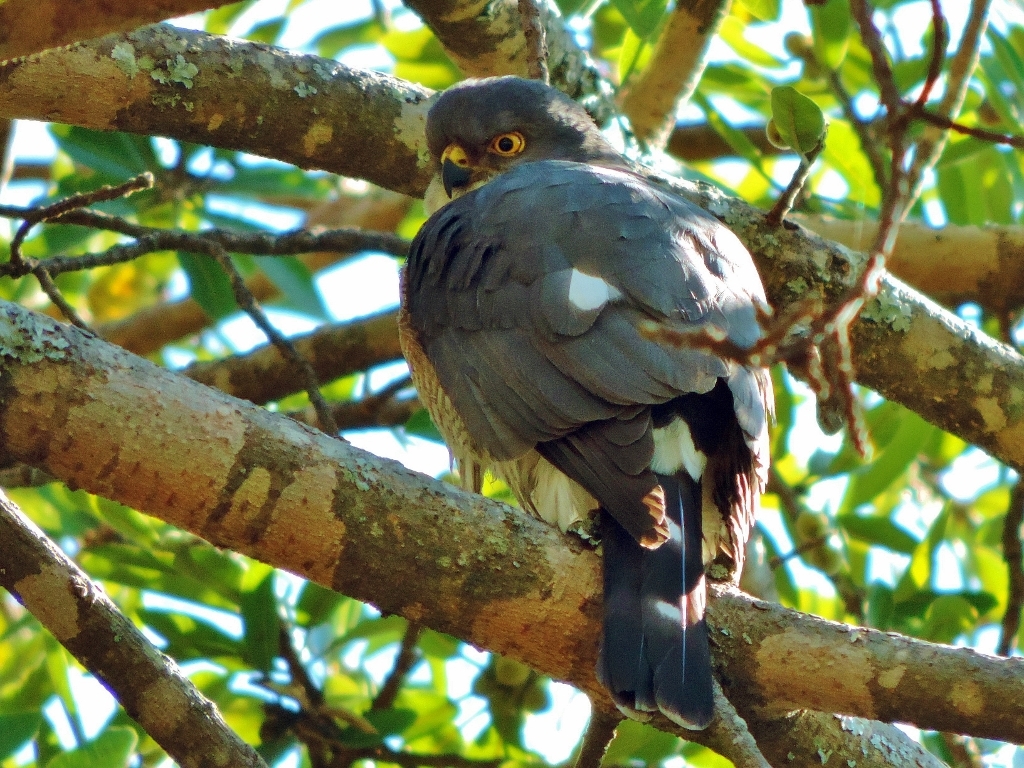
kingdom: Animalia
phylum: Chordata
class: Aves
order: Accipitriformes
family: Accipitridae
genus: Accipiter
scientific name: Accipiter minullus
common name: Little sparrowhawk
